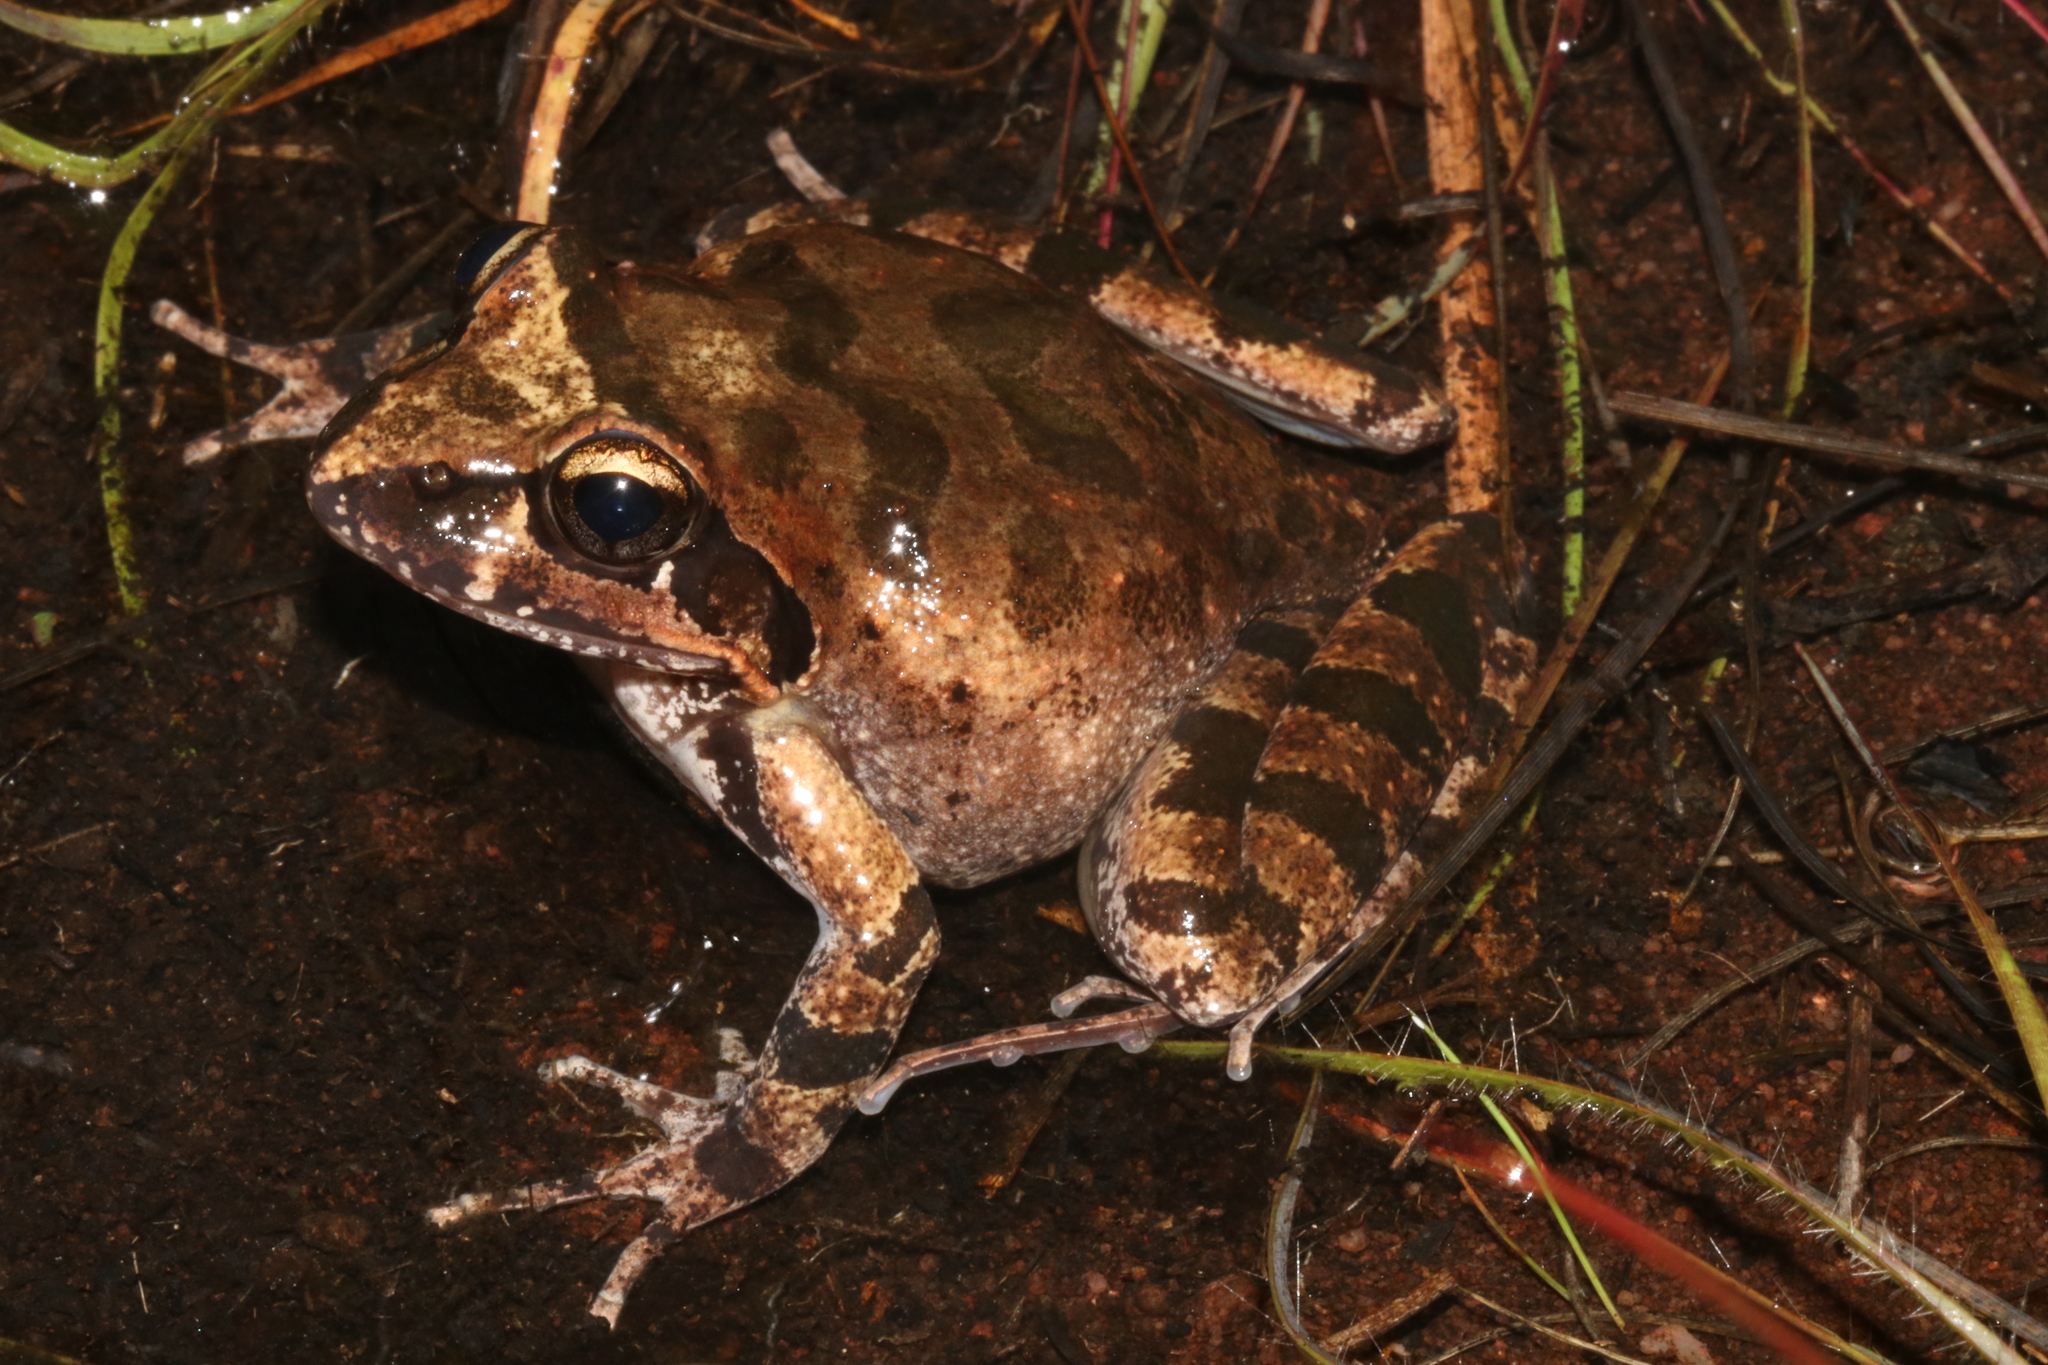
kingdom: Animalia
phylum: Chordata
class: Amphibia
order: Anura
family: Pyxicephalidae
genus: Strongylopus
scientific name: Strongylopus grayii
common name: Gray's stream frog
